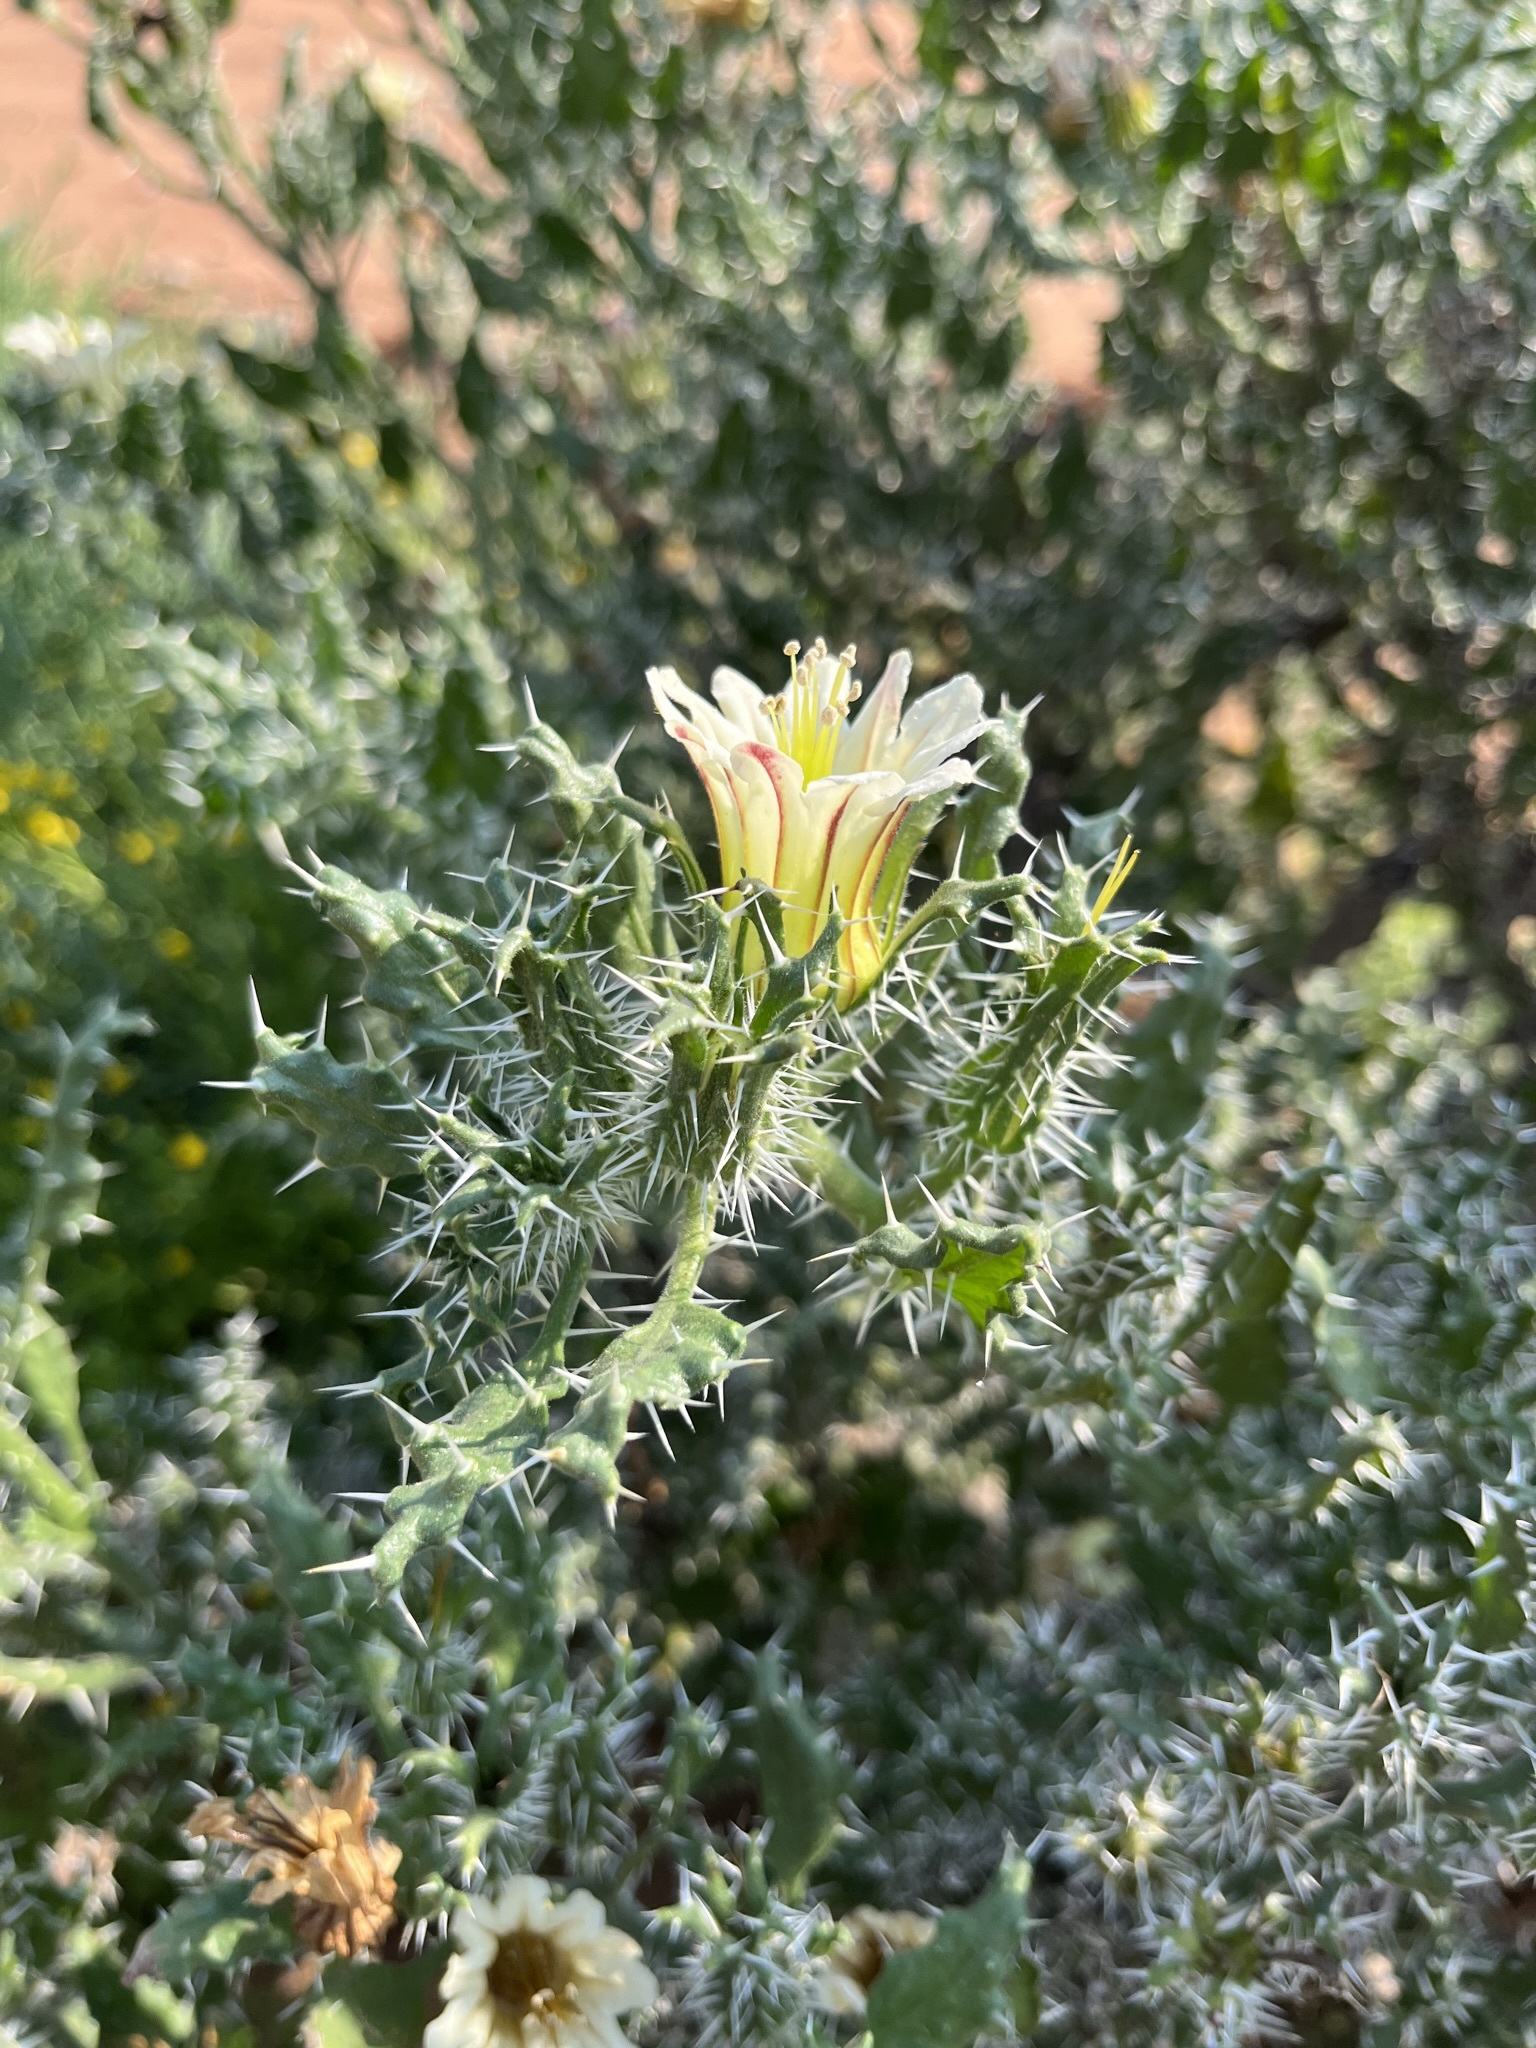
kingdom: Plantae
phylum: Tracheophyta
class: Magnoliopsida
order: Boraginales
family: Boraginaceae
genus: Codon
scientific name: Codon royenii
